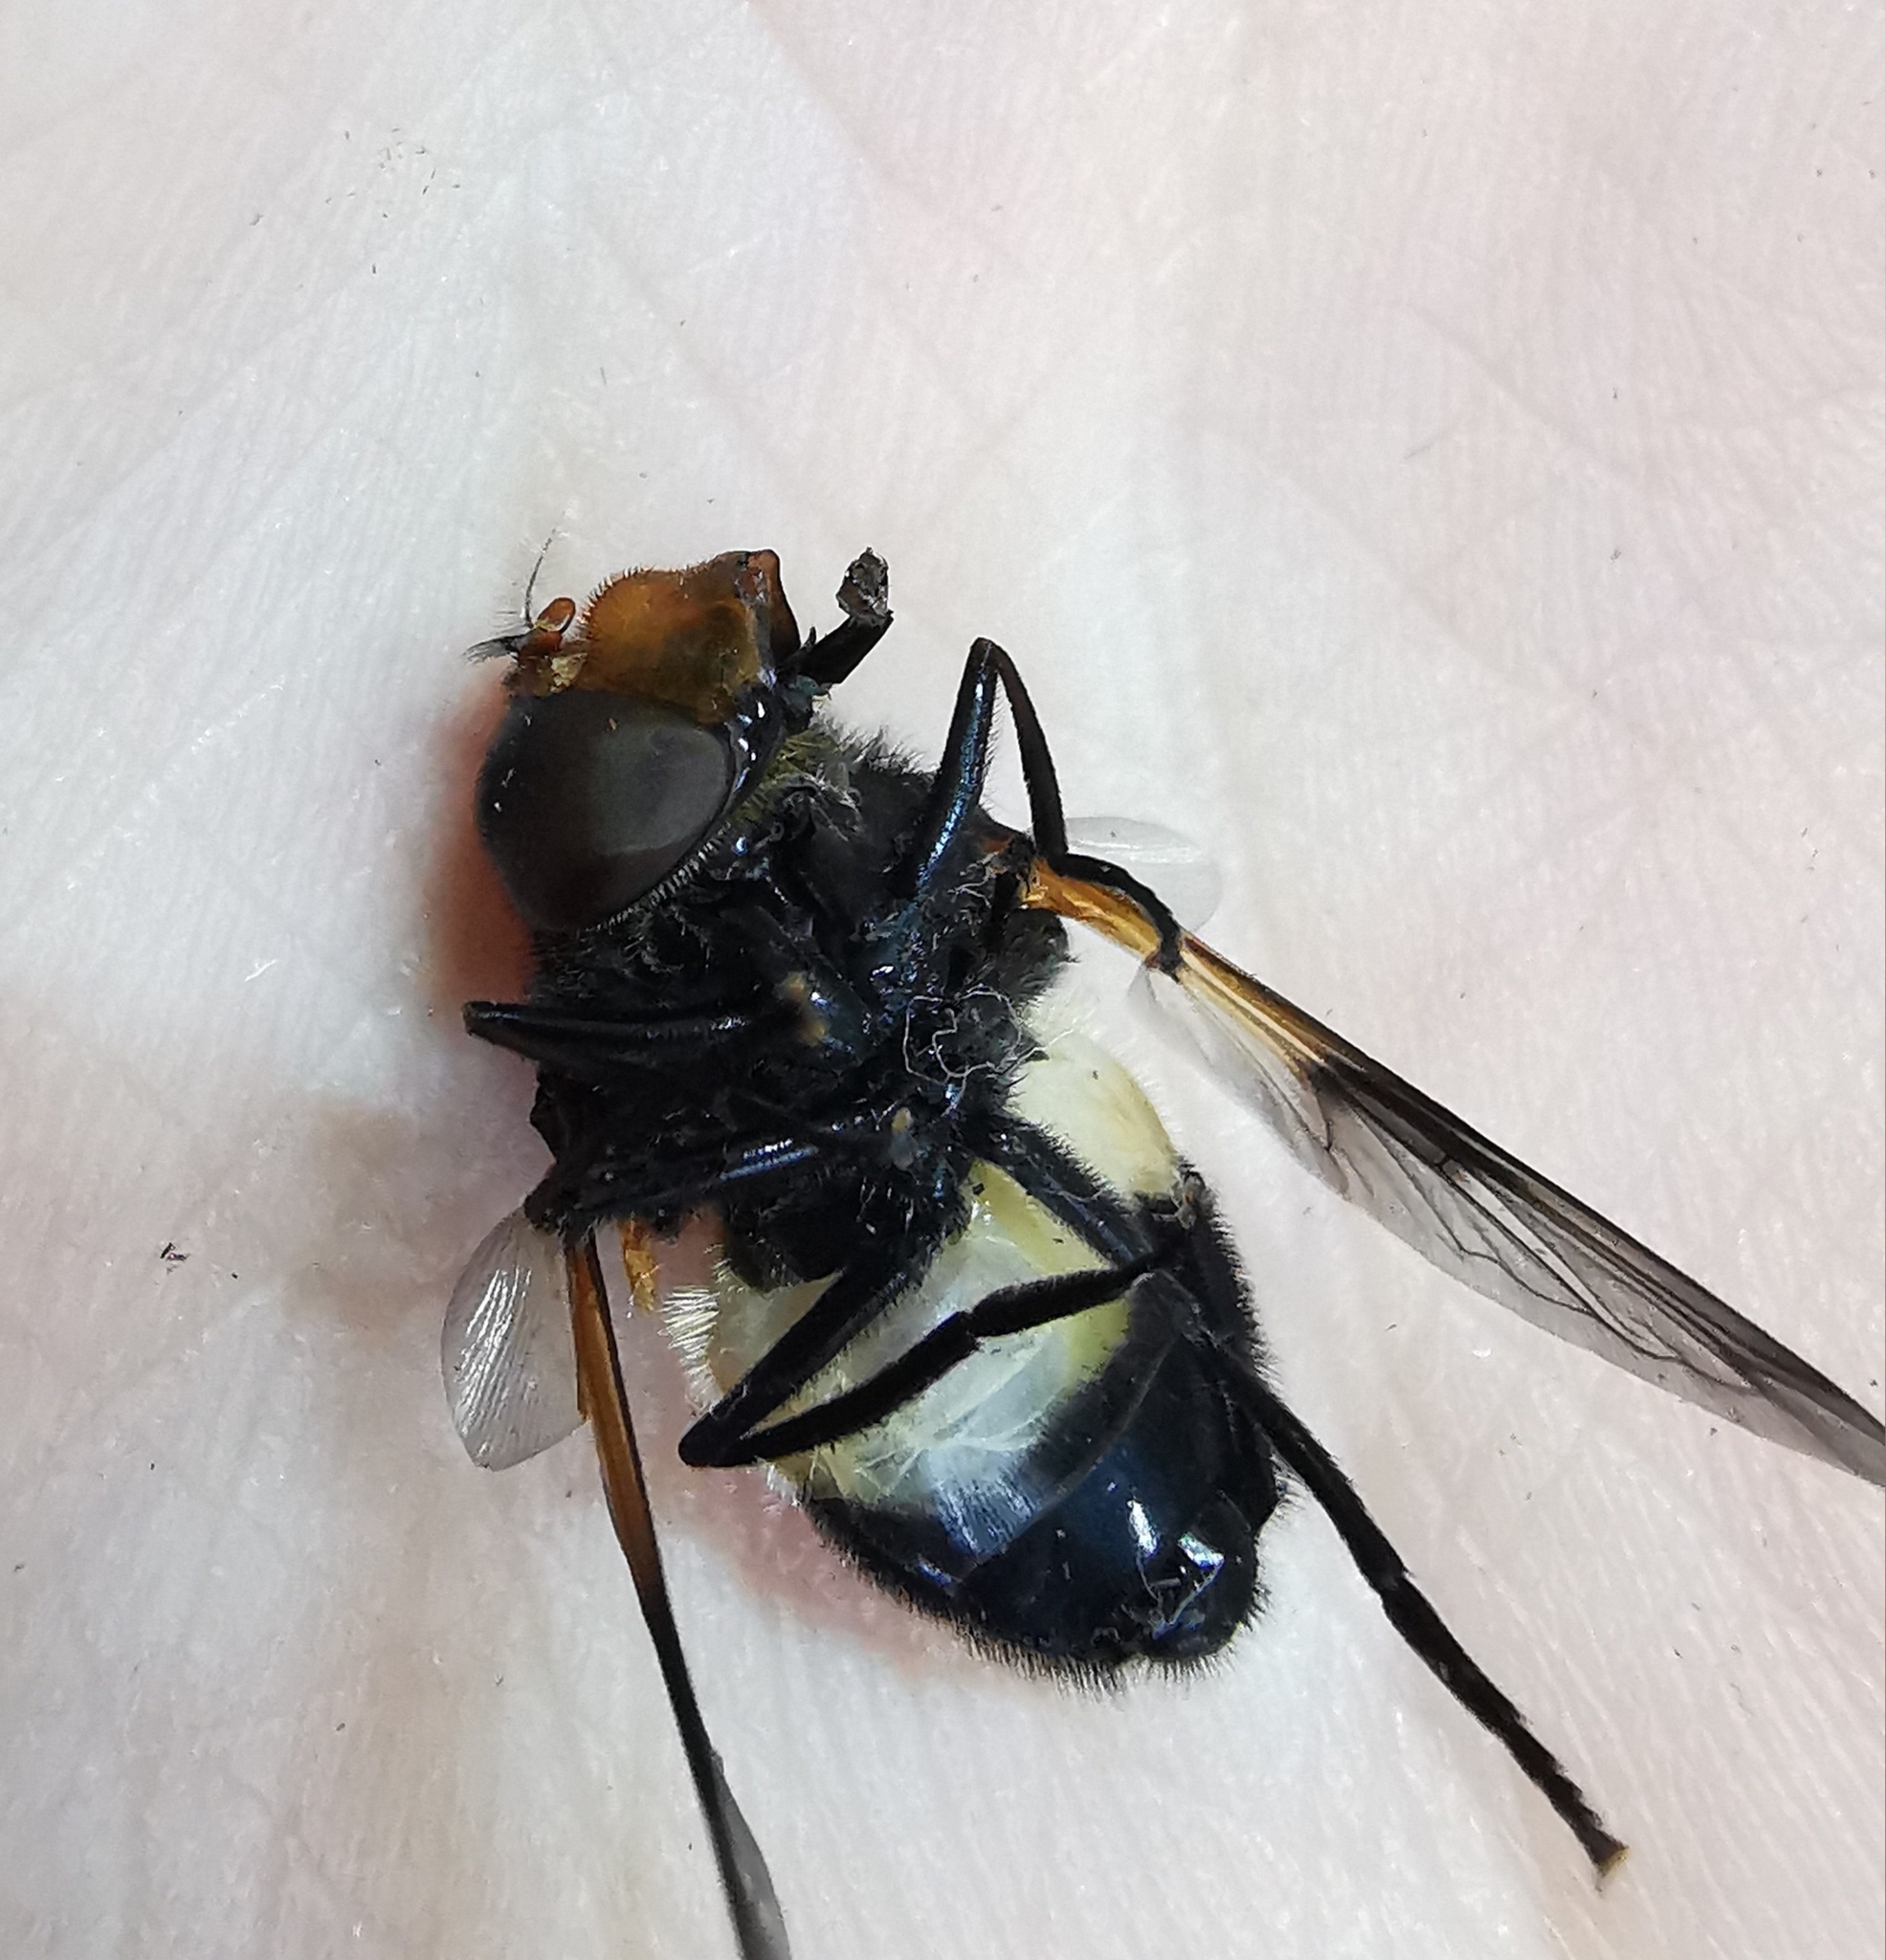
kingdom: Animalia
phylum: Arthropoda
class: Insecta
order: Diptera
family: Syrphidae
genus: Volucella
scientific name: Volucella pellucens
